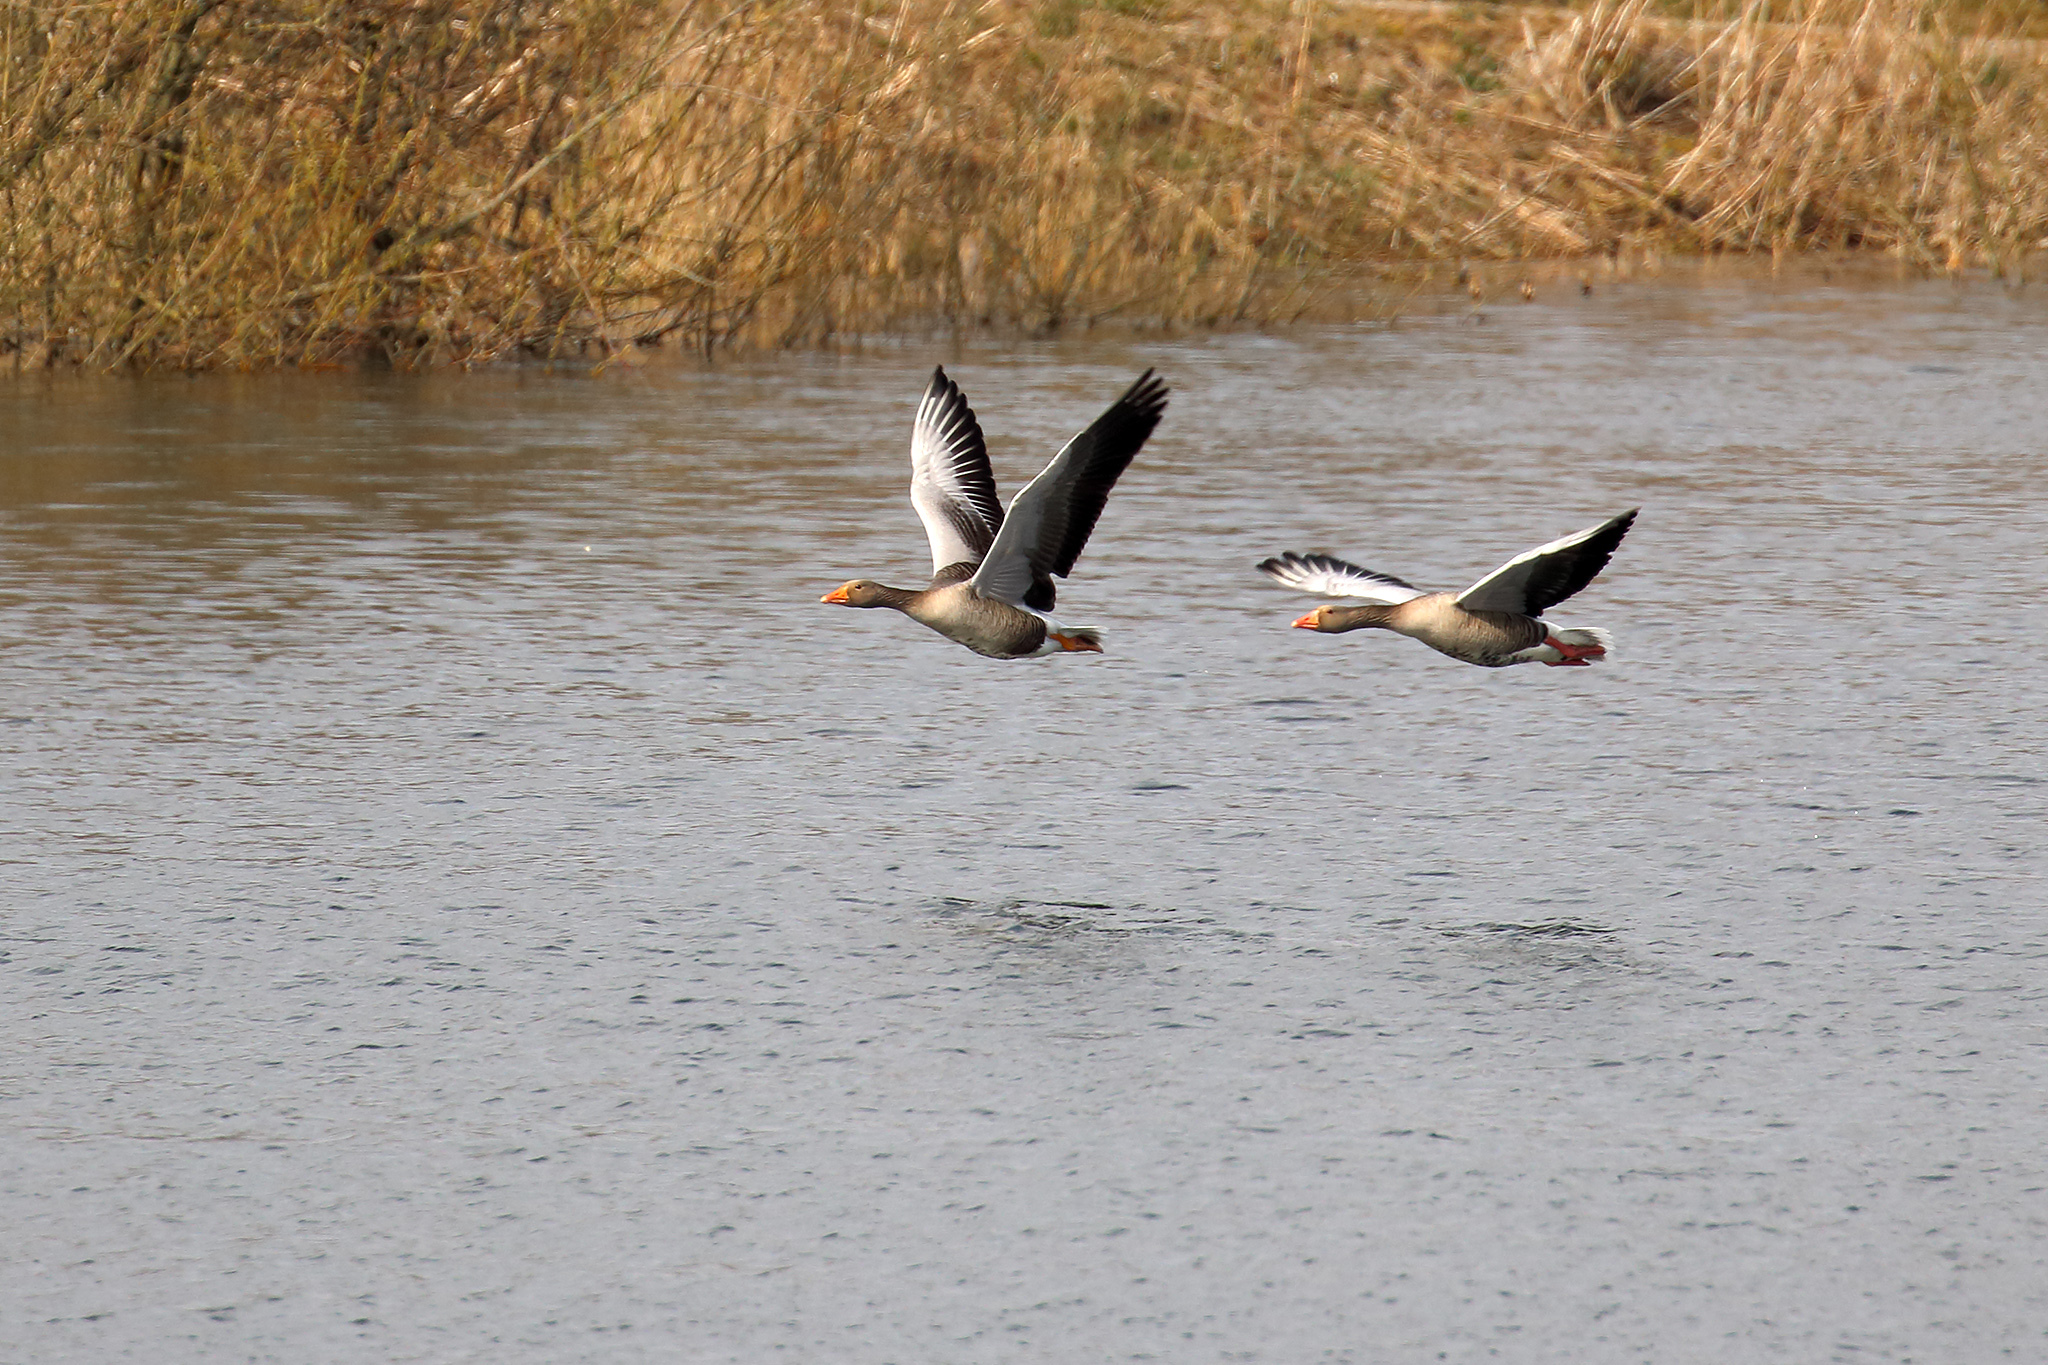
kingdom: Animalia
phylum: Chordata
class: Aves
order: Anseriformes
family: Anatidae
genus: Anser
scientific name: Anser anser
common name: Greylag goose
